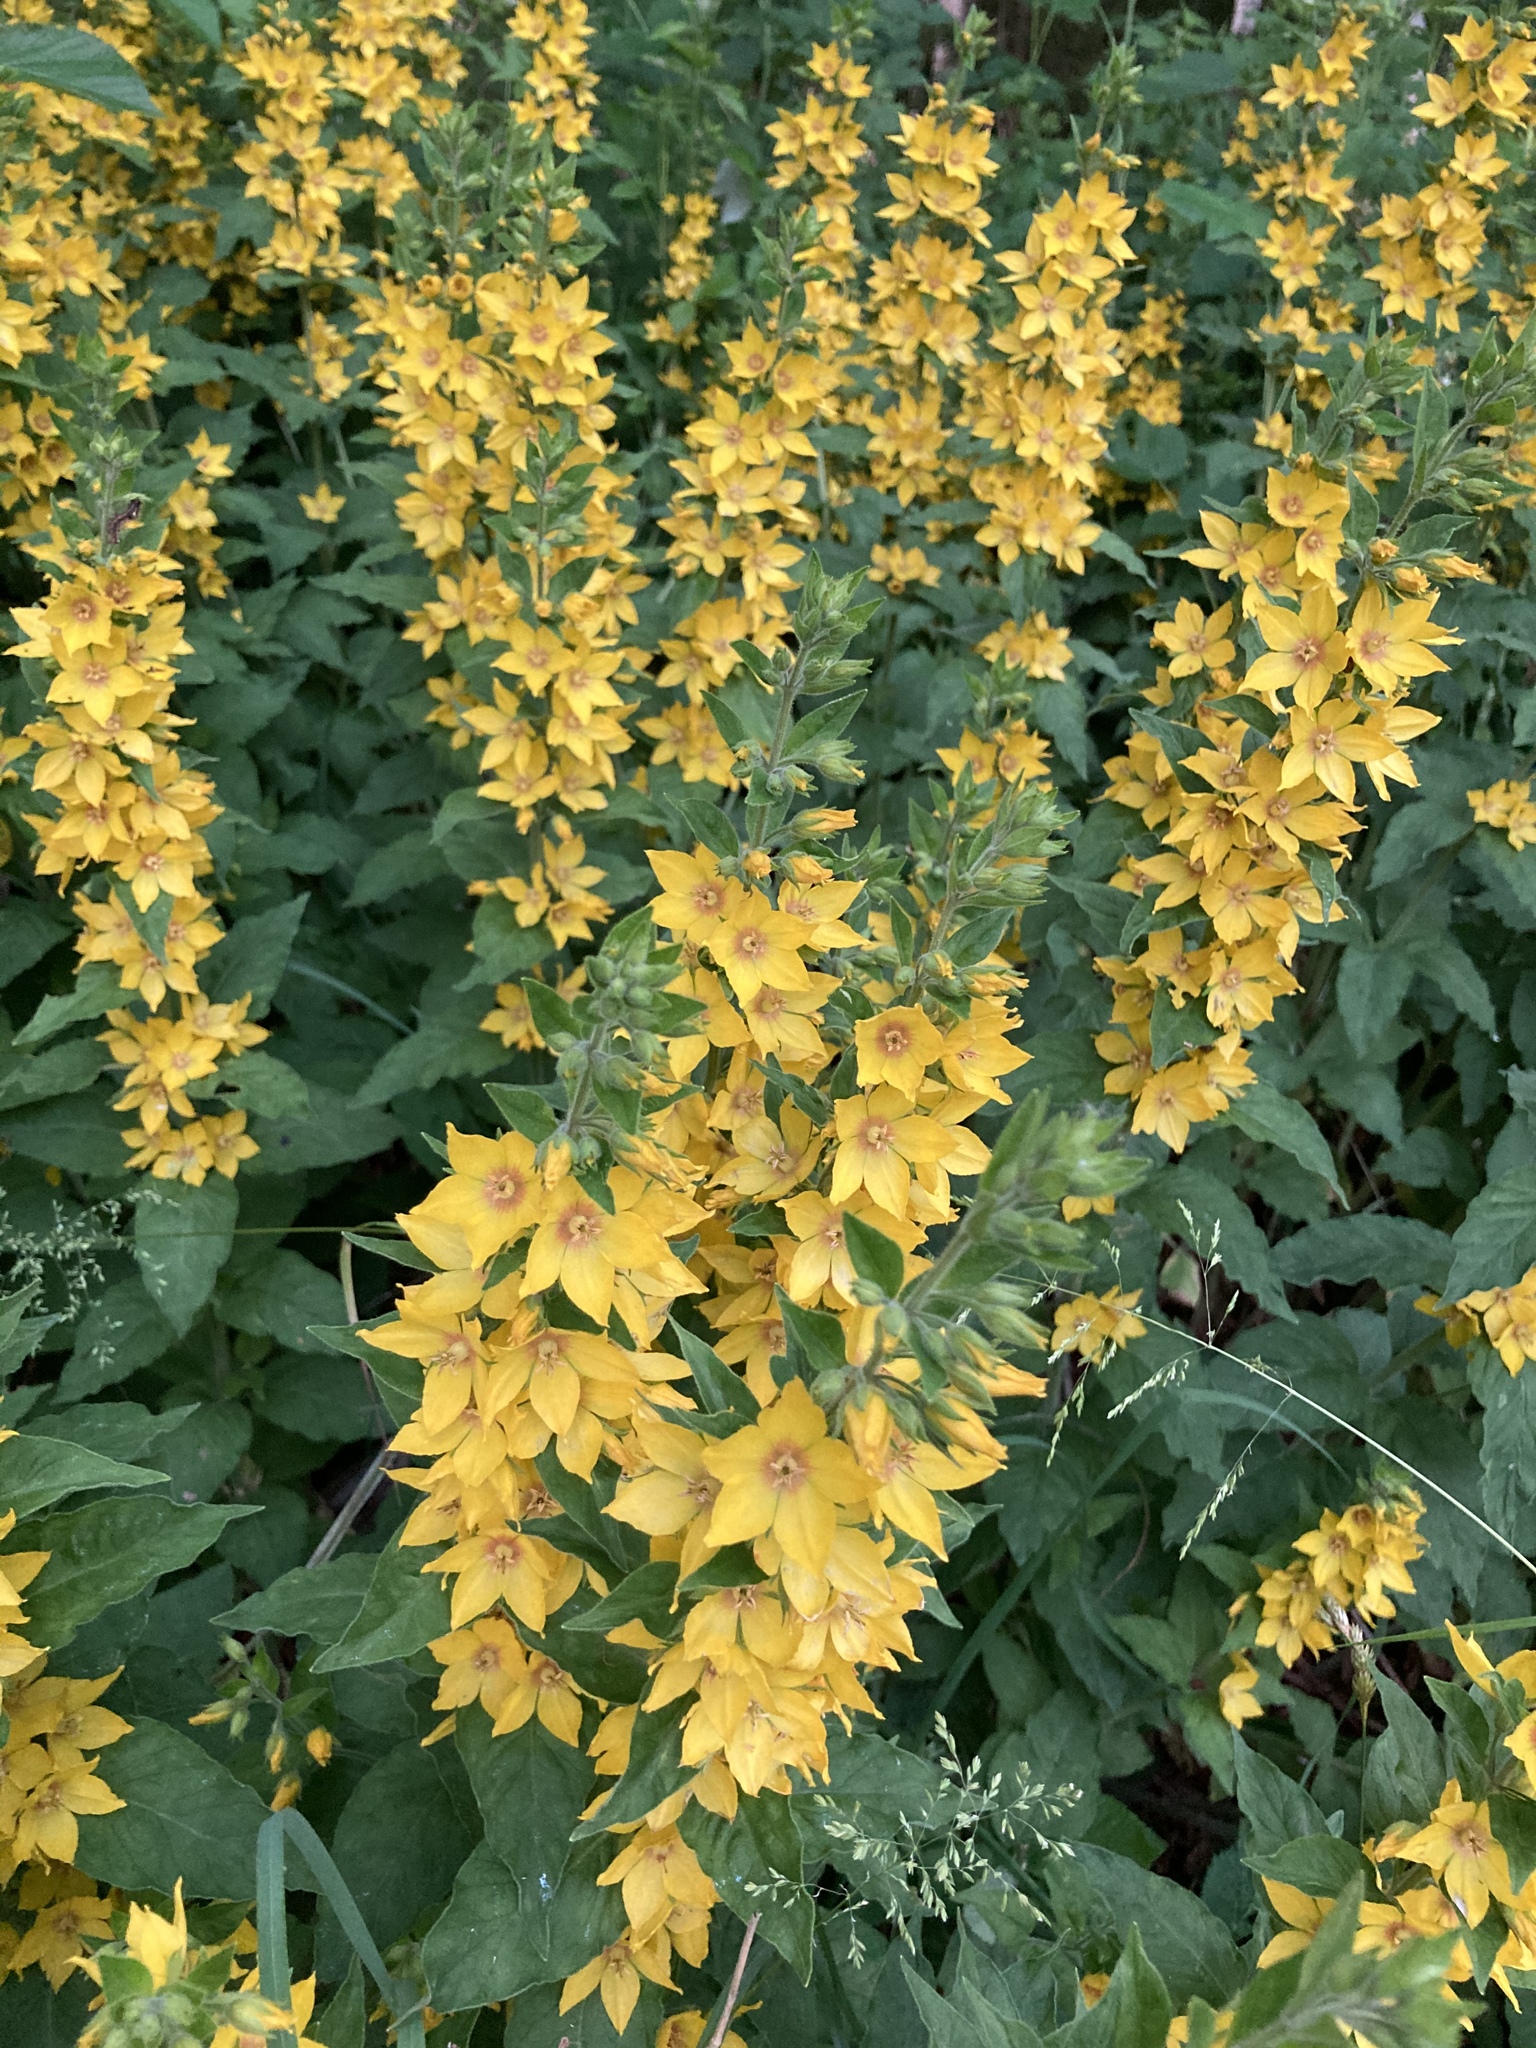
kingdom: Plantae
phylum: Tracheophyta
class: Magnoliopsida
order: Ericales
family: Primulaceae
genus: Lysimachia
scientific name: Lysimachia punctata
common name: Dotted loosestrife
